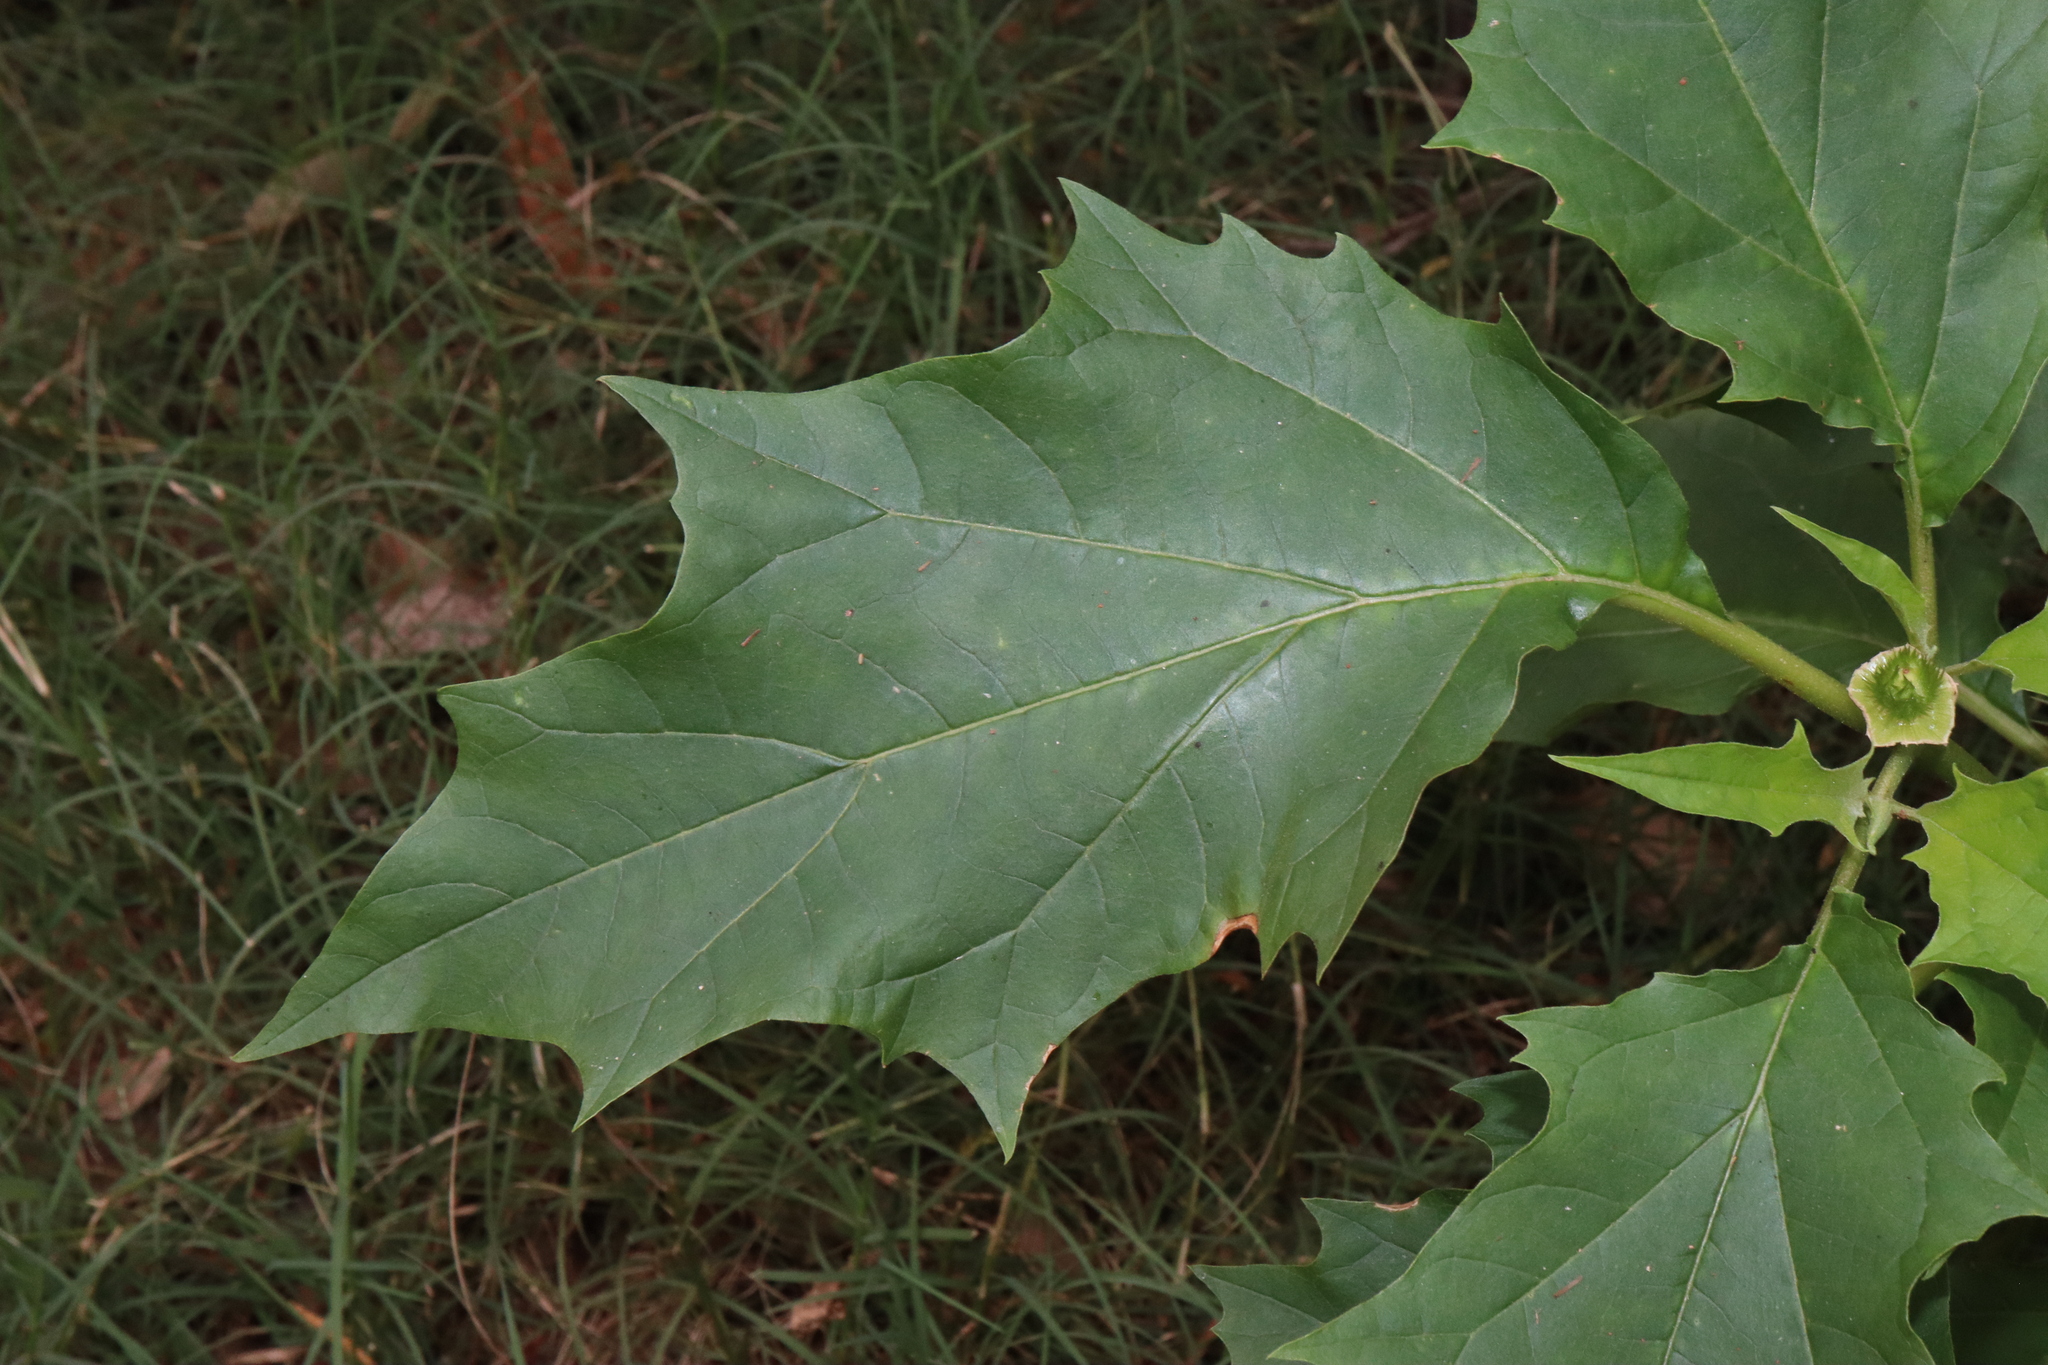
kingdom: Plantae
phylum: Tracheophyta
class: Magnoliopsida
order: Solanales
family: Solanaceae
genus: Datura
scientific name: Datura stramonium
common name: Thorn-apple
